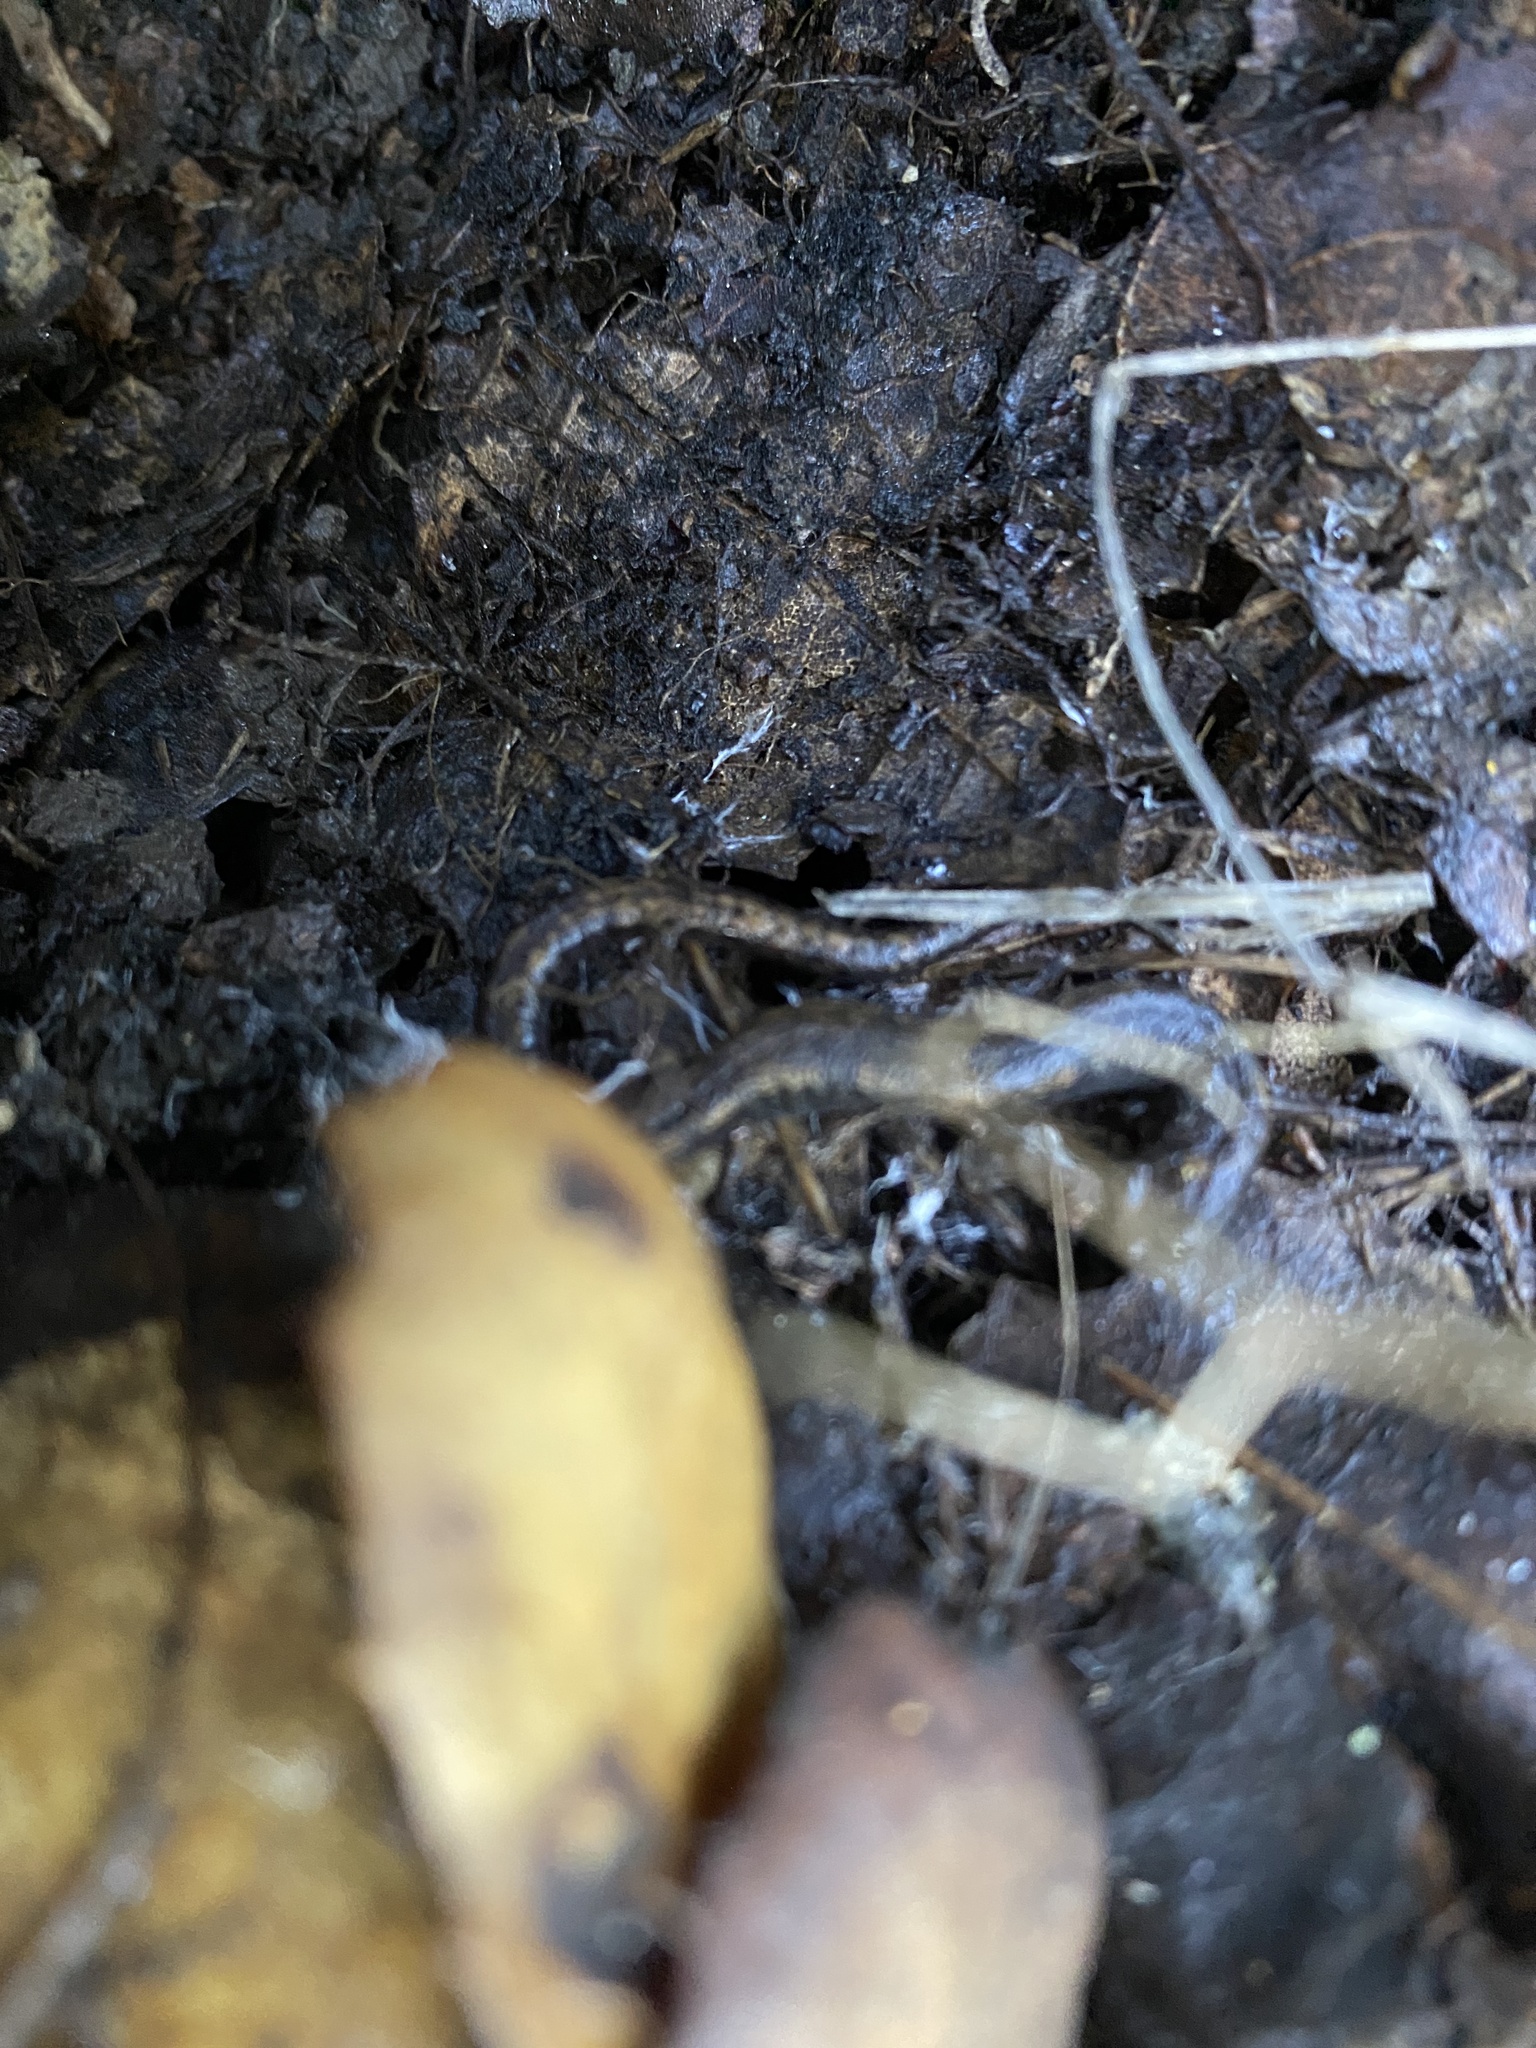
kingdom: Animalia
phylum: Chordata
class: Amphibia
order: Caudata
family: Plethodontidae
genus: Batrachoseps
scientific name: Batrachoseps attenuatus
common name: California slender salamander
